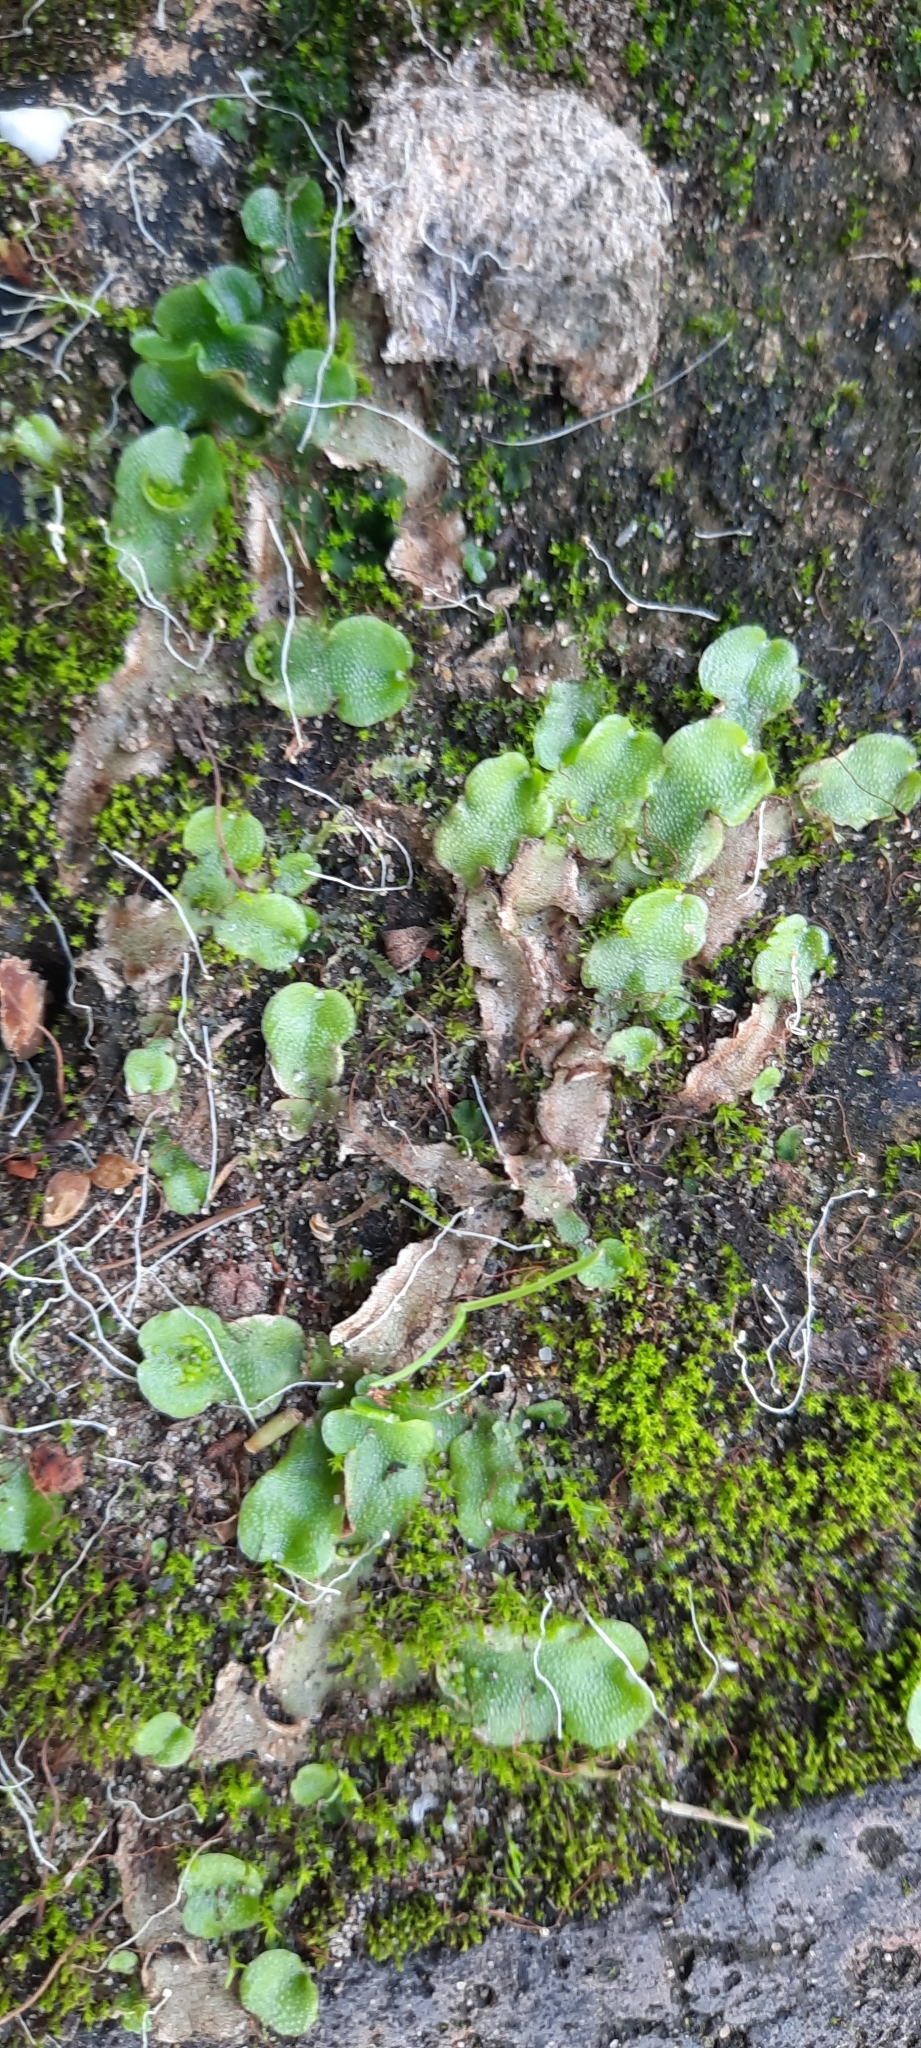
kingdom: Plantae
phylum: Marchantiophyta
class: Marchantiopsida
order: Lunulariales
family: Lunulariaceae
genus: Lunularia
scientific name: Lunularia cruciata
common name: Crescent-cup liverwort
